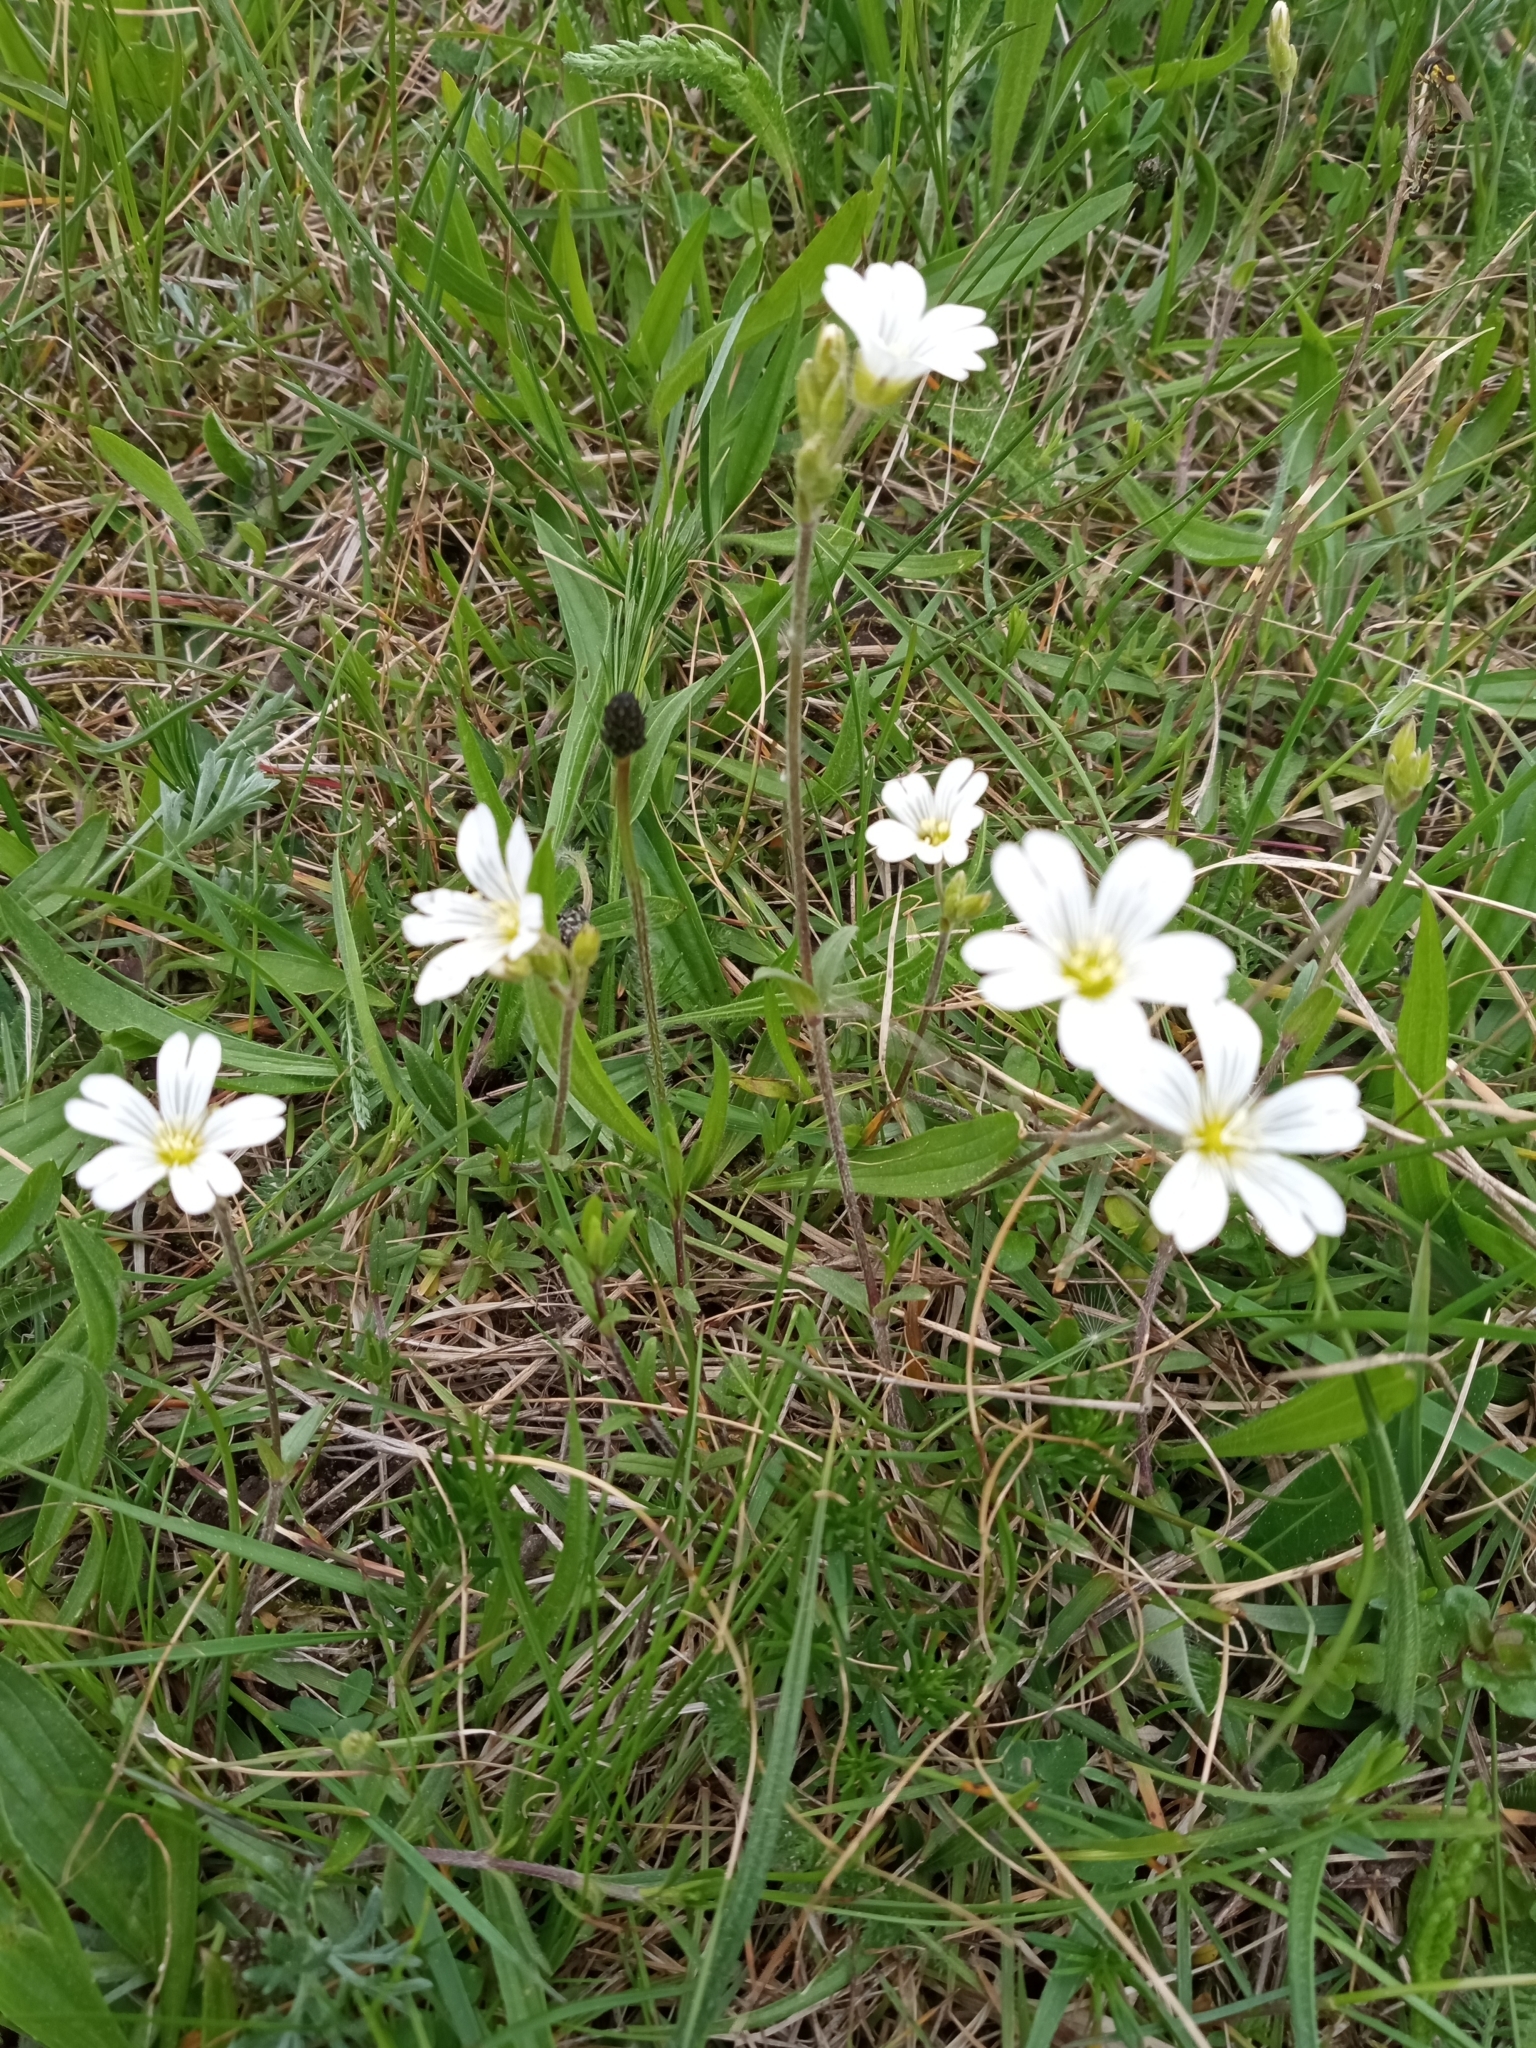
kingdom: Plantae
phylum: Tracheophyta
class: Magnoliopsida
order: Caryophyllales
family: Caryophyllaceae
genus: Cerastium
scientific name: Cerastium arvense
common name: Field mouse-ear
